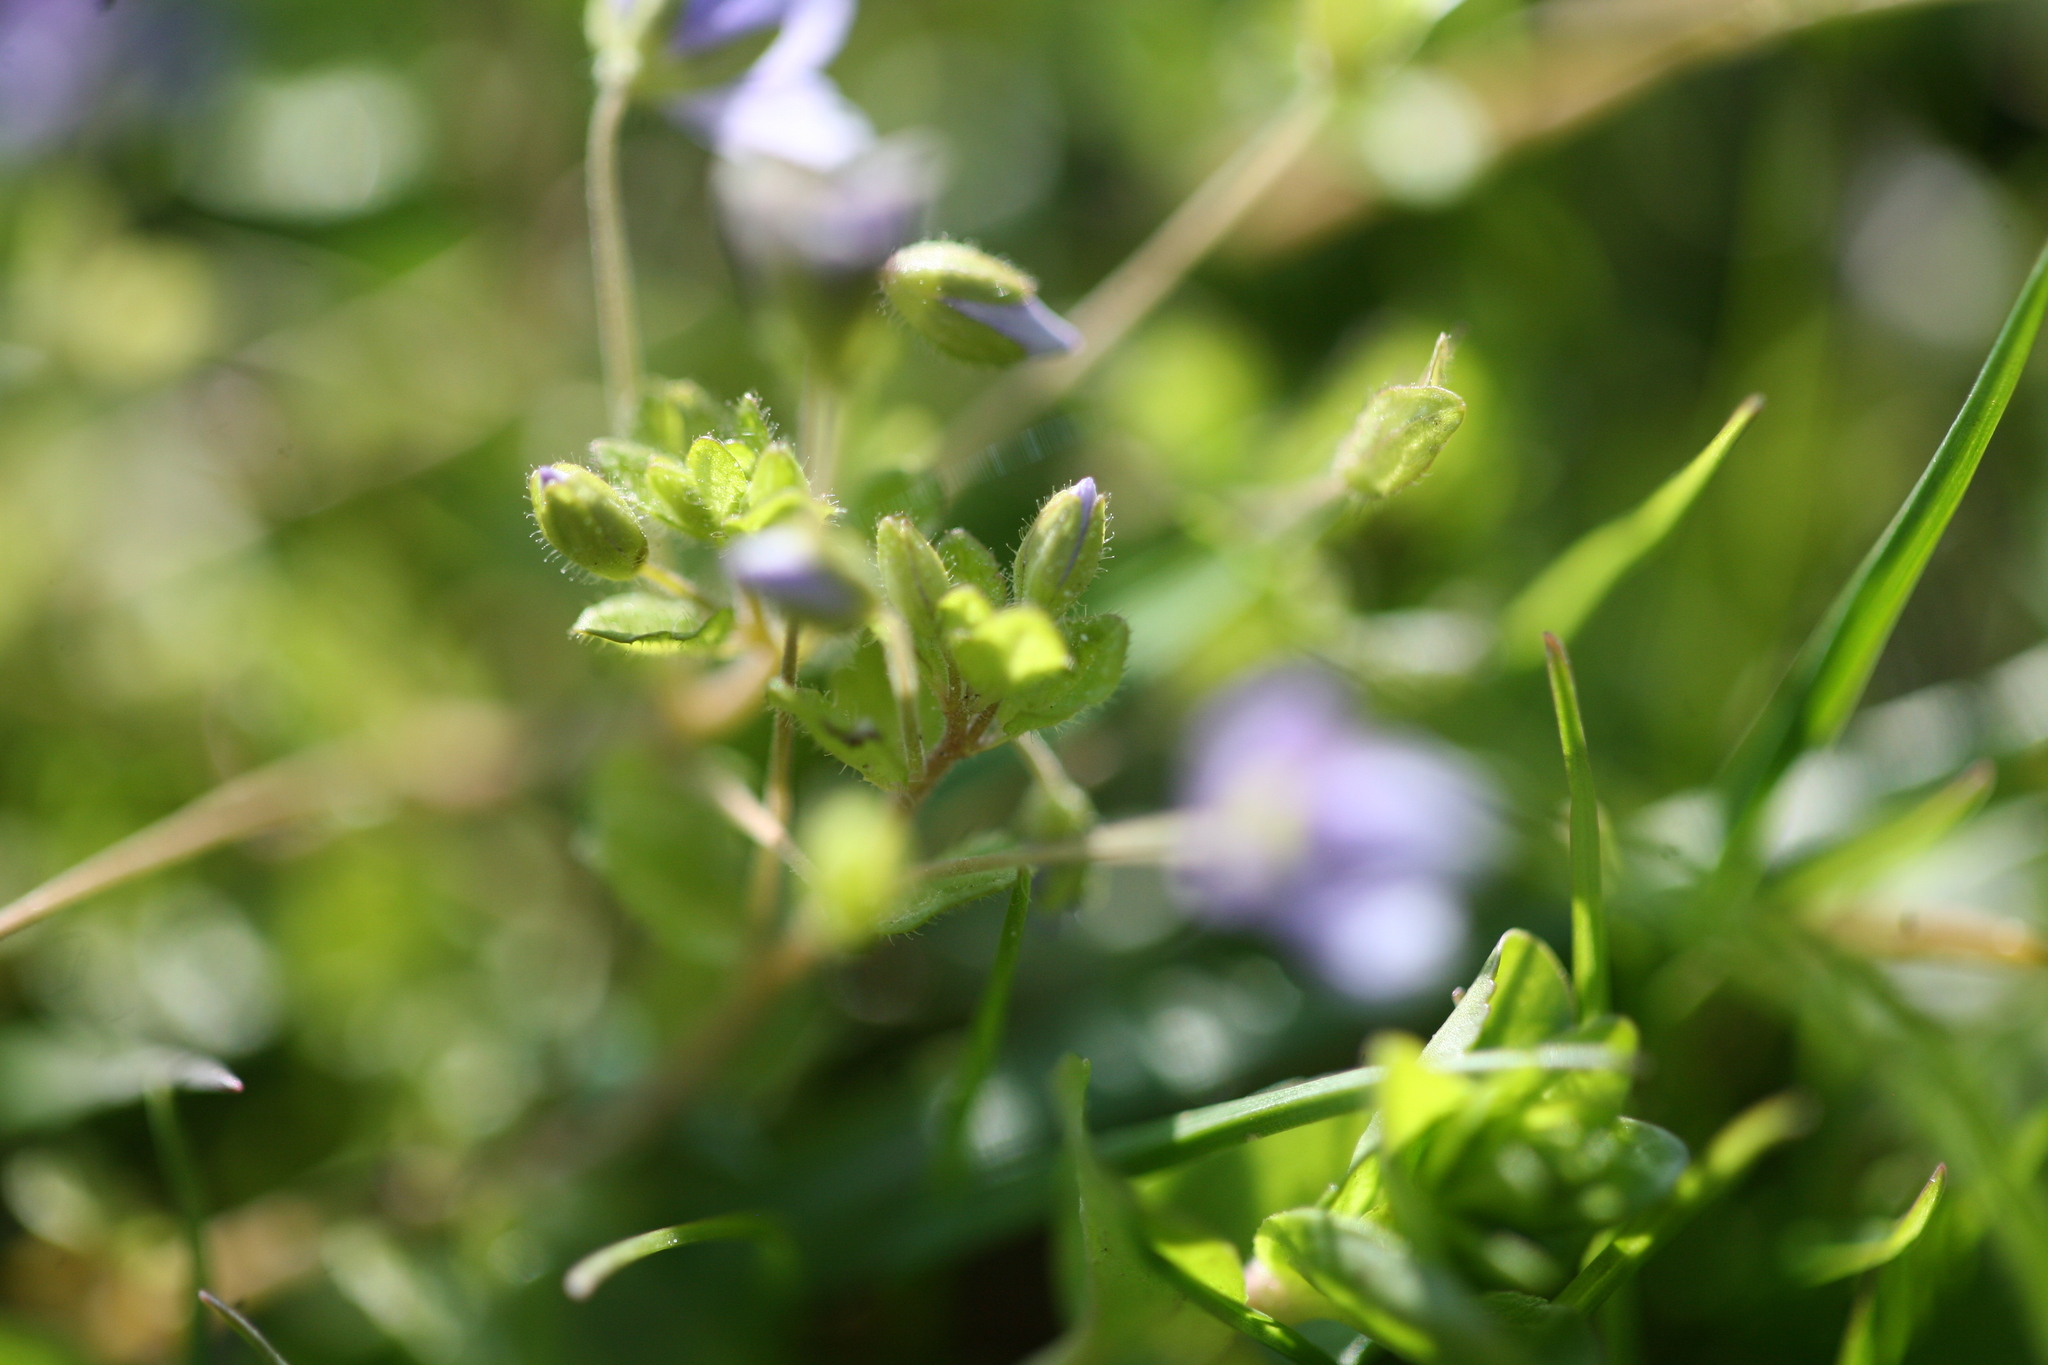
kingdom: Plantae
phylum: Tracheophyta
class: Magnoliopsida
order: Lamiales
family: Plantaginaceae
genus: Veronica
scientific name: Veronica filiformis
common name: Slender speedwell
